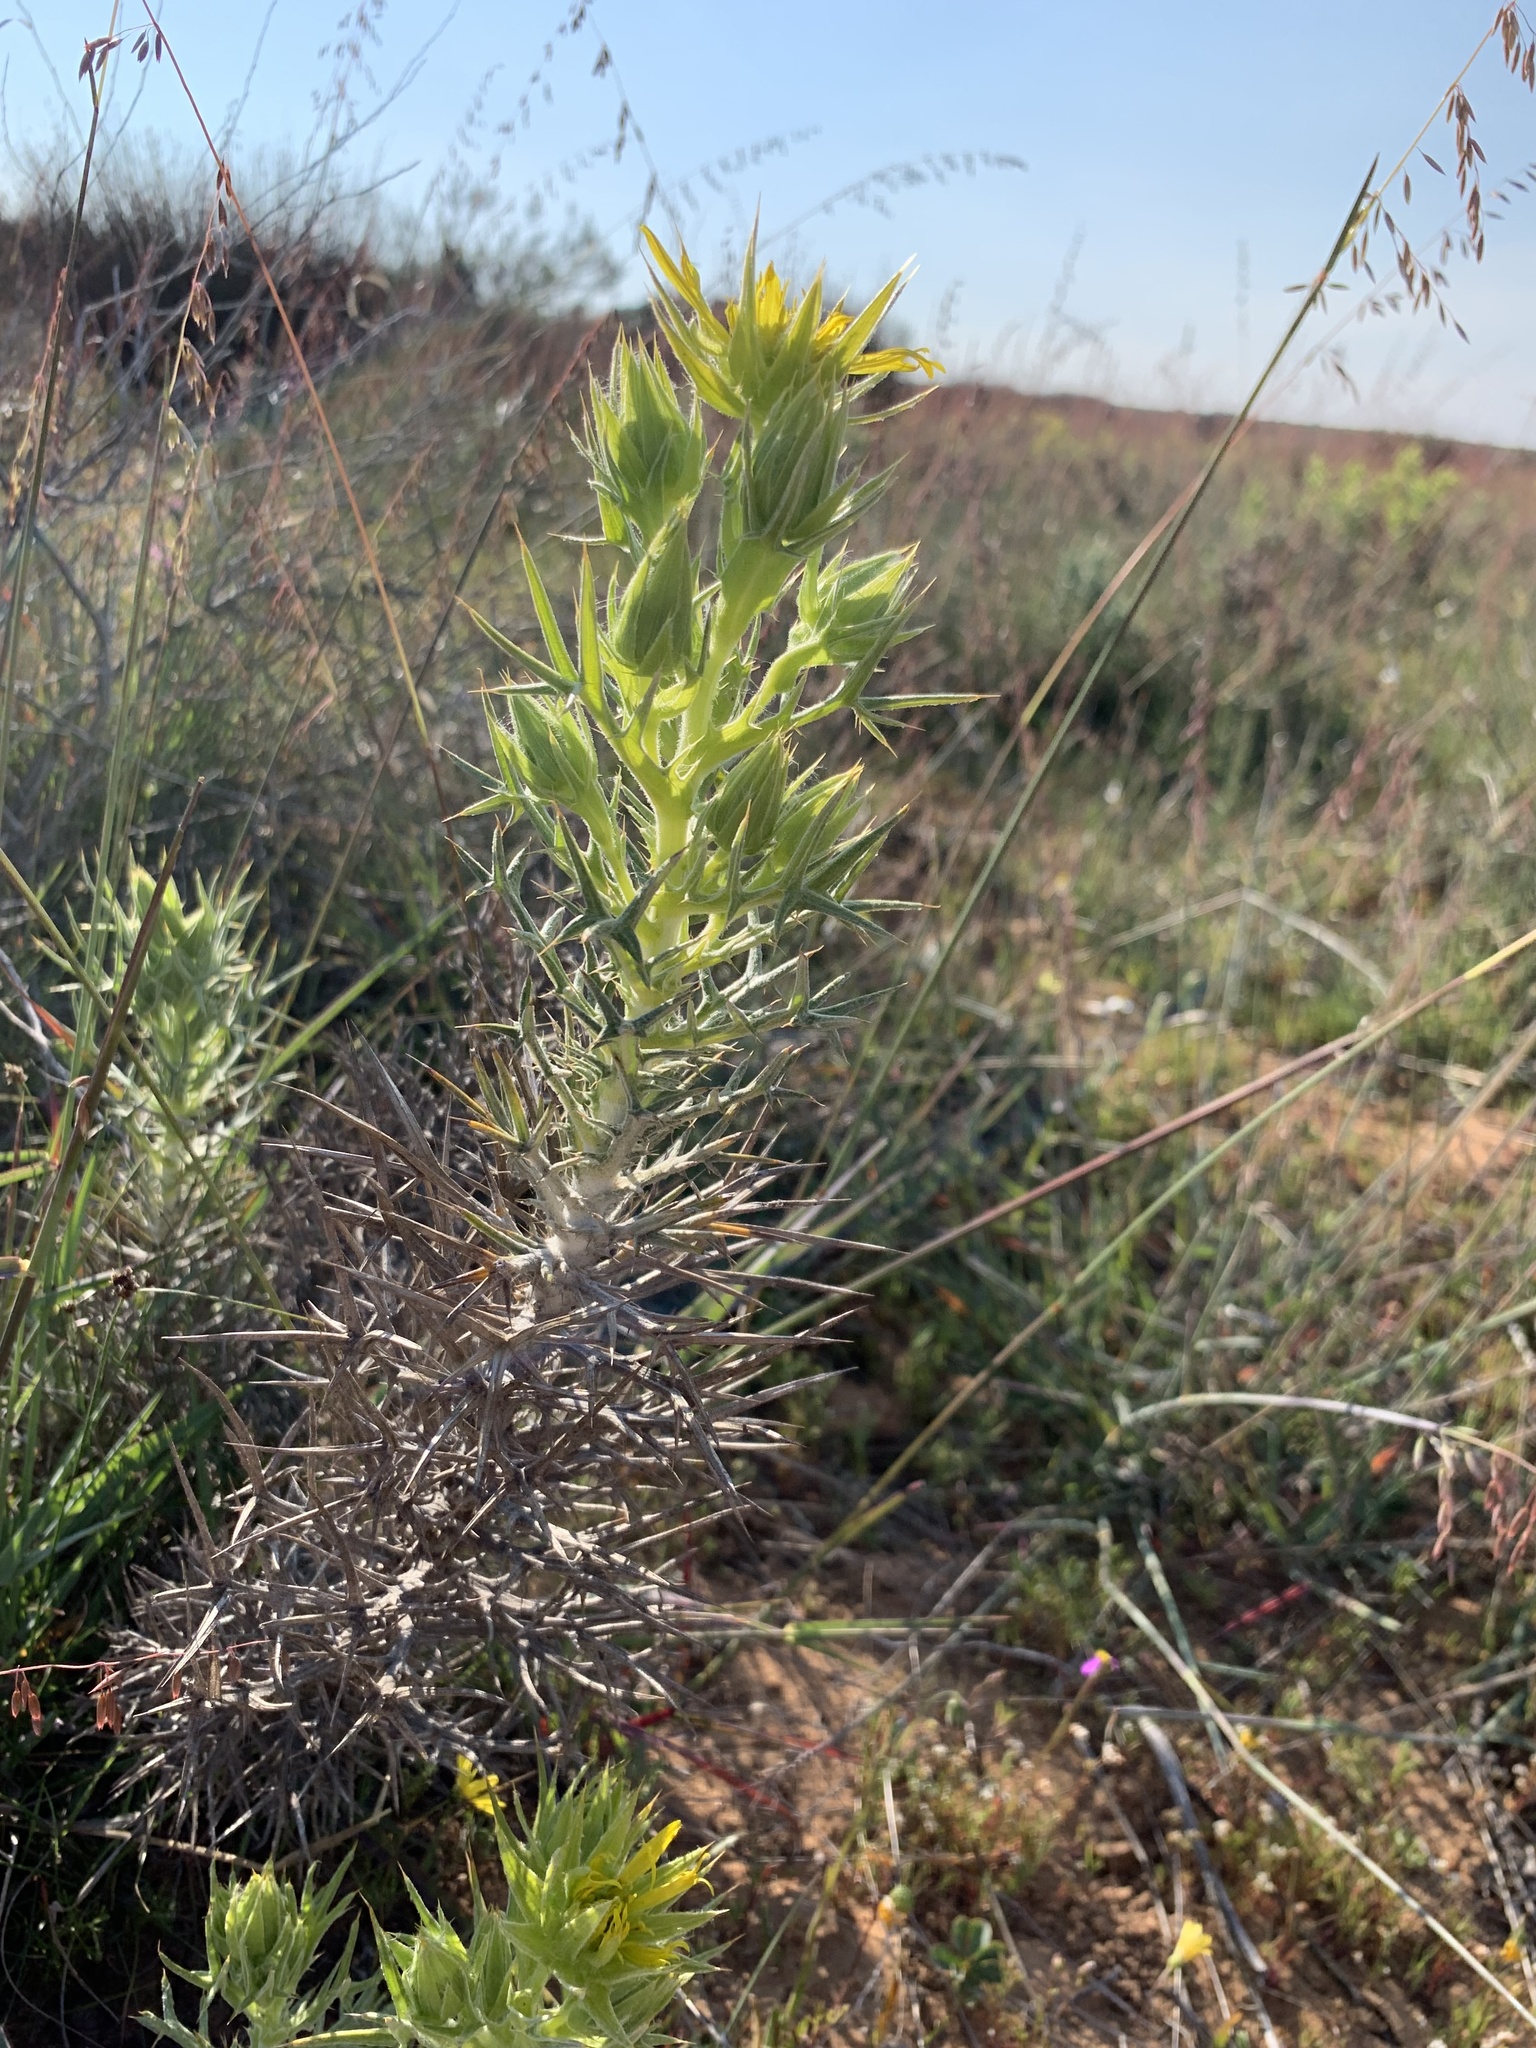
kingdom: Plantae
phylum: Tracheophyta
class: Magnoliopsida
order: Asterales
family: Asteraceae
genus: Heterorhachis
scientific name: Heterorhachis aculeata
